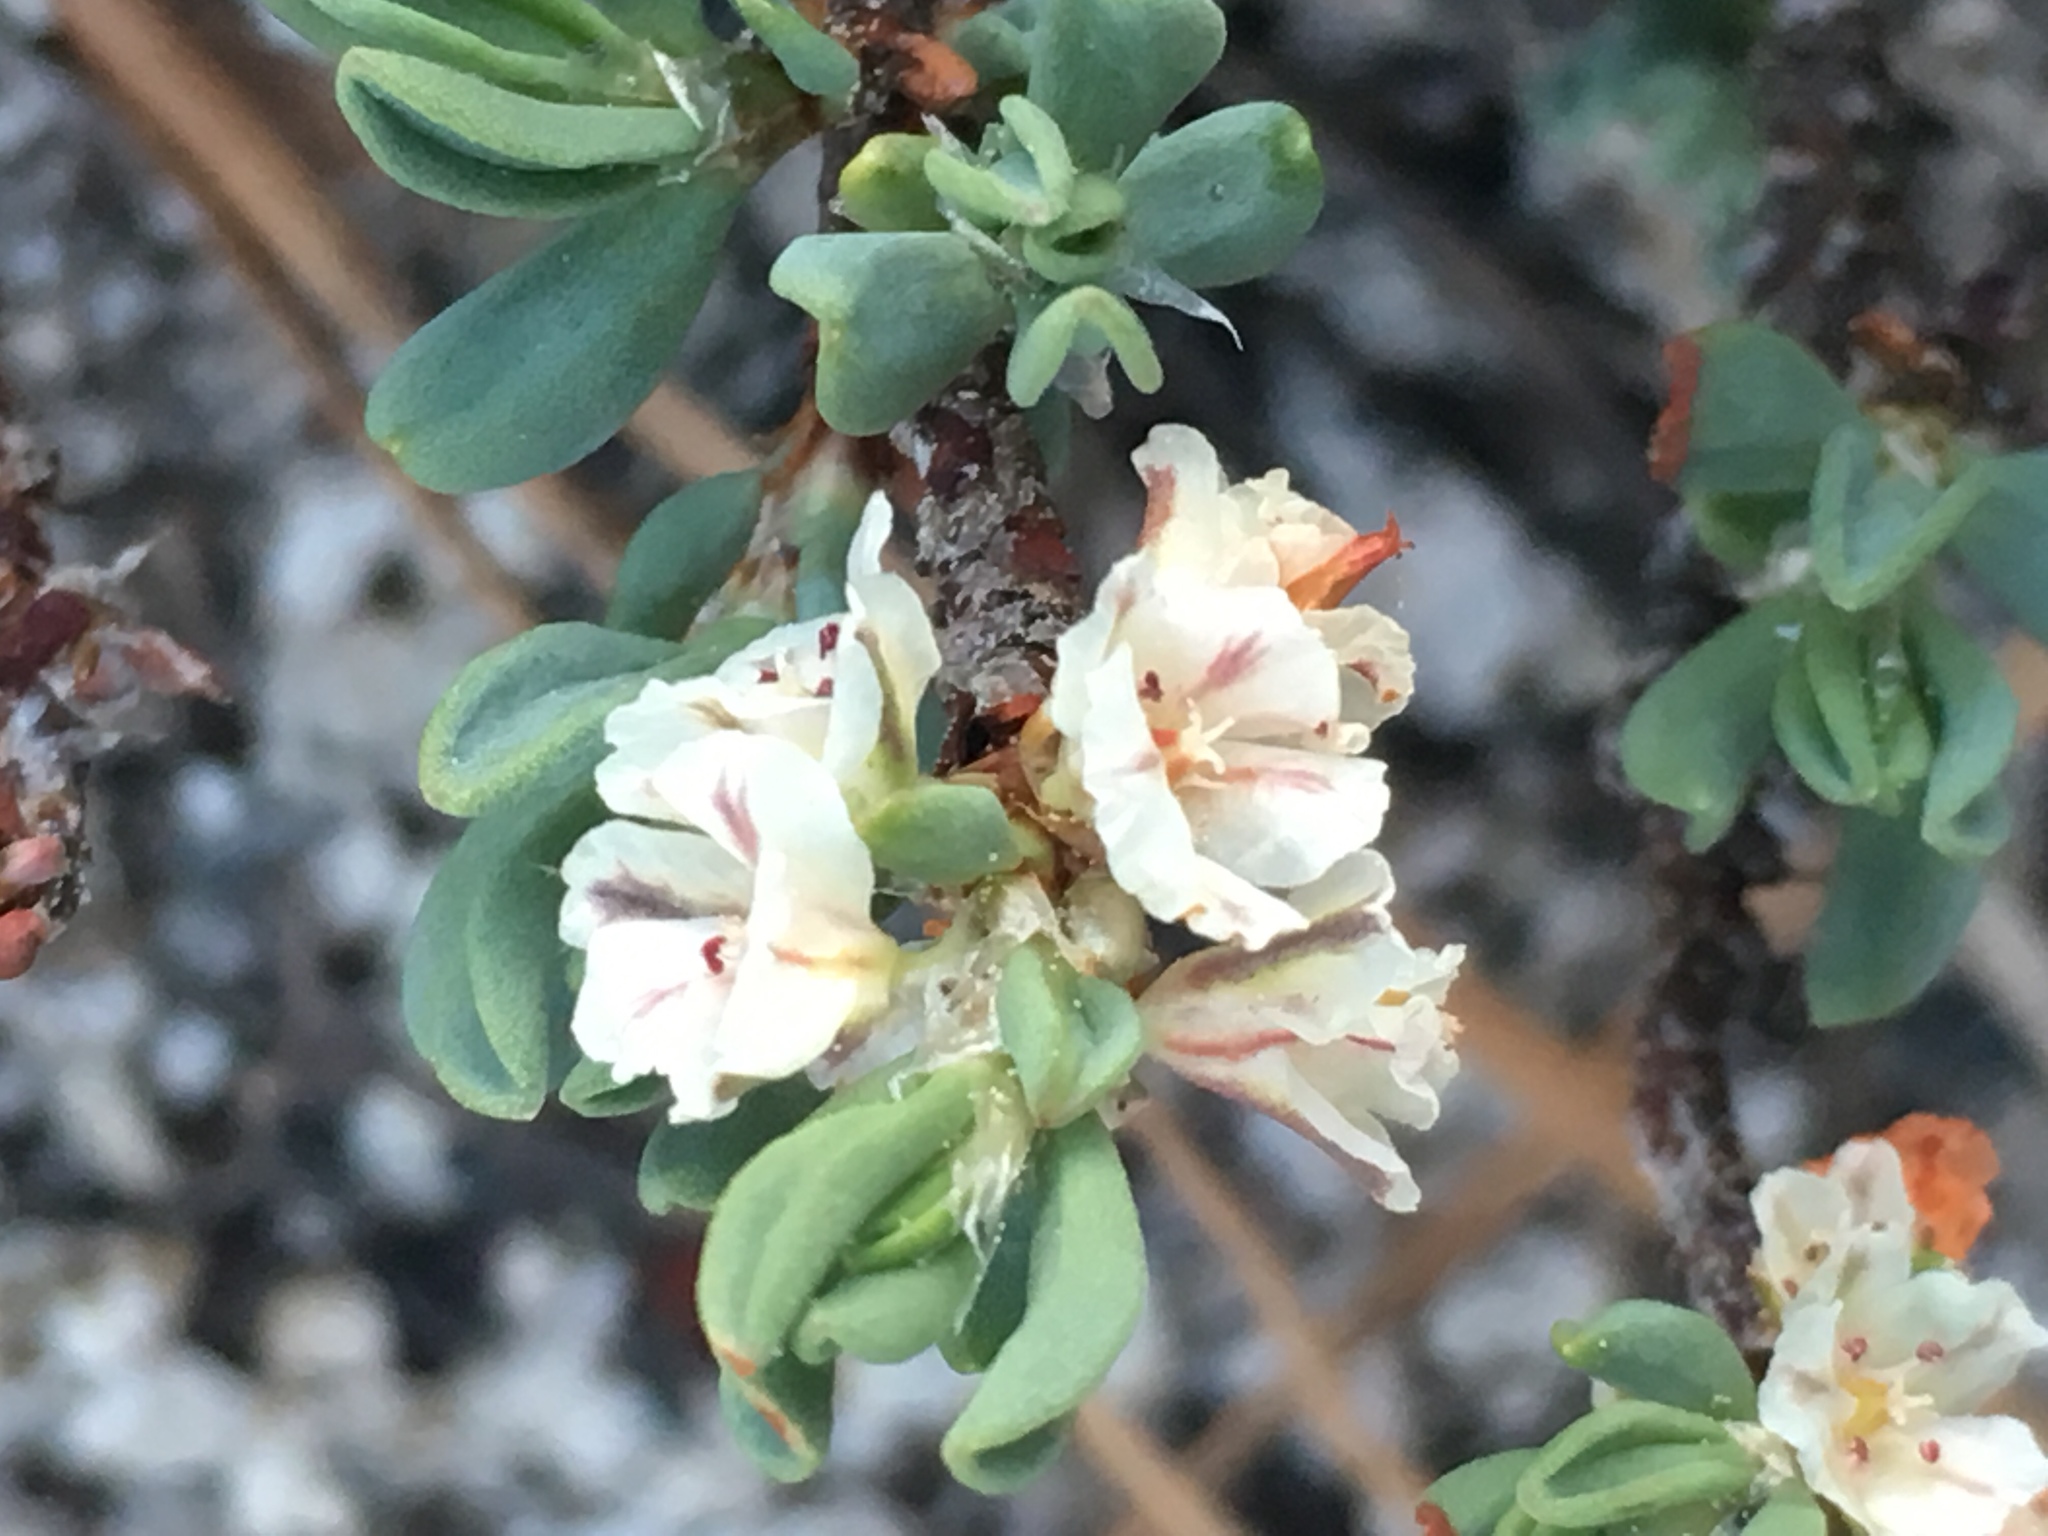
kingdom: Plantae
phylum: Tracheophyta
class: Magnoliopsida
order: Caryophyllales
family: Polygonaceae
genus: Polygonum
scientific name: Polygonum shastense
